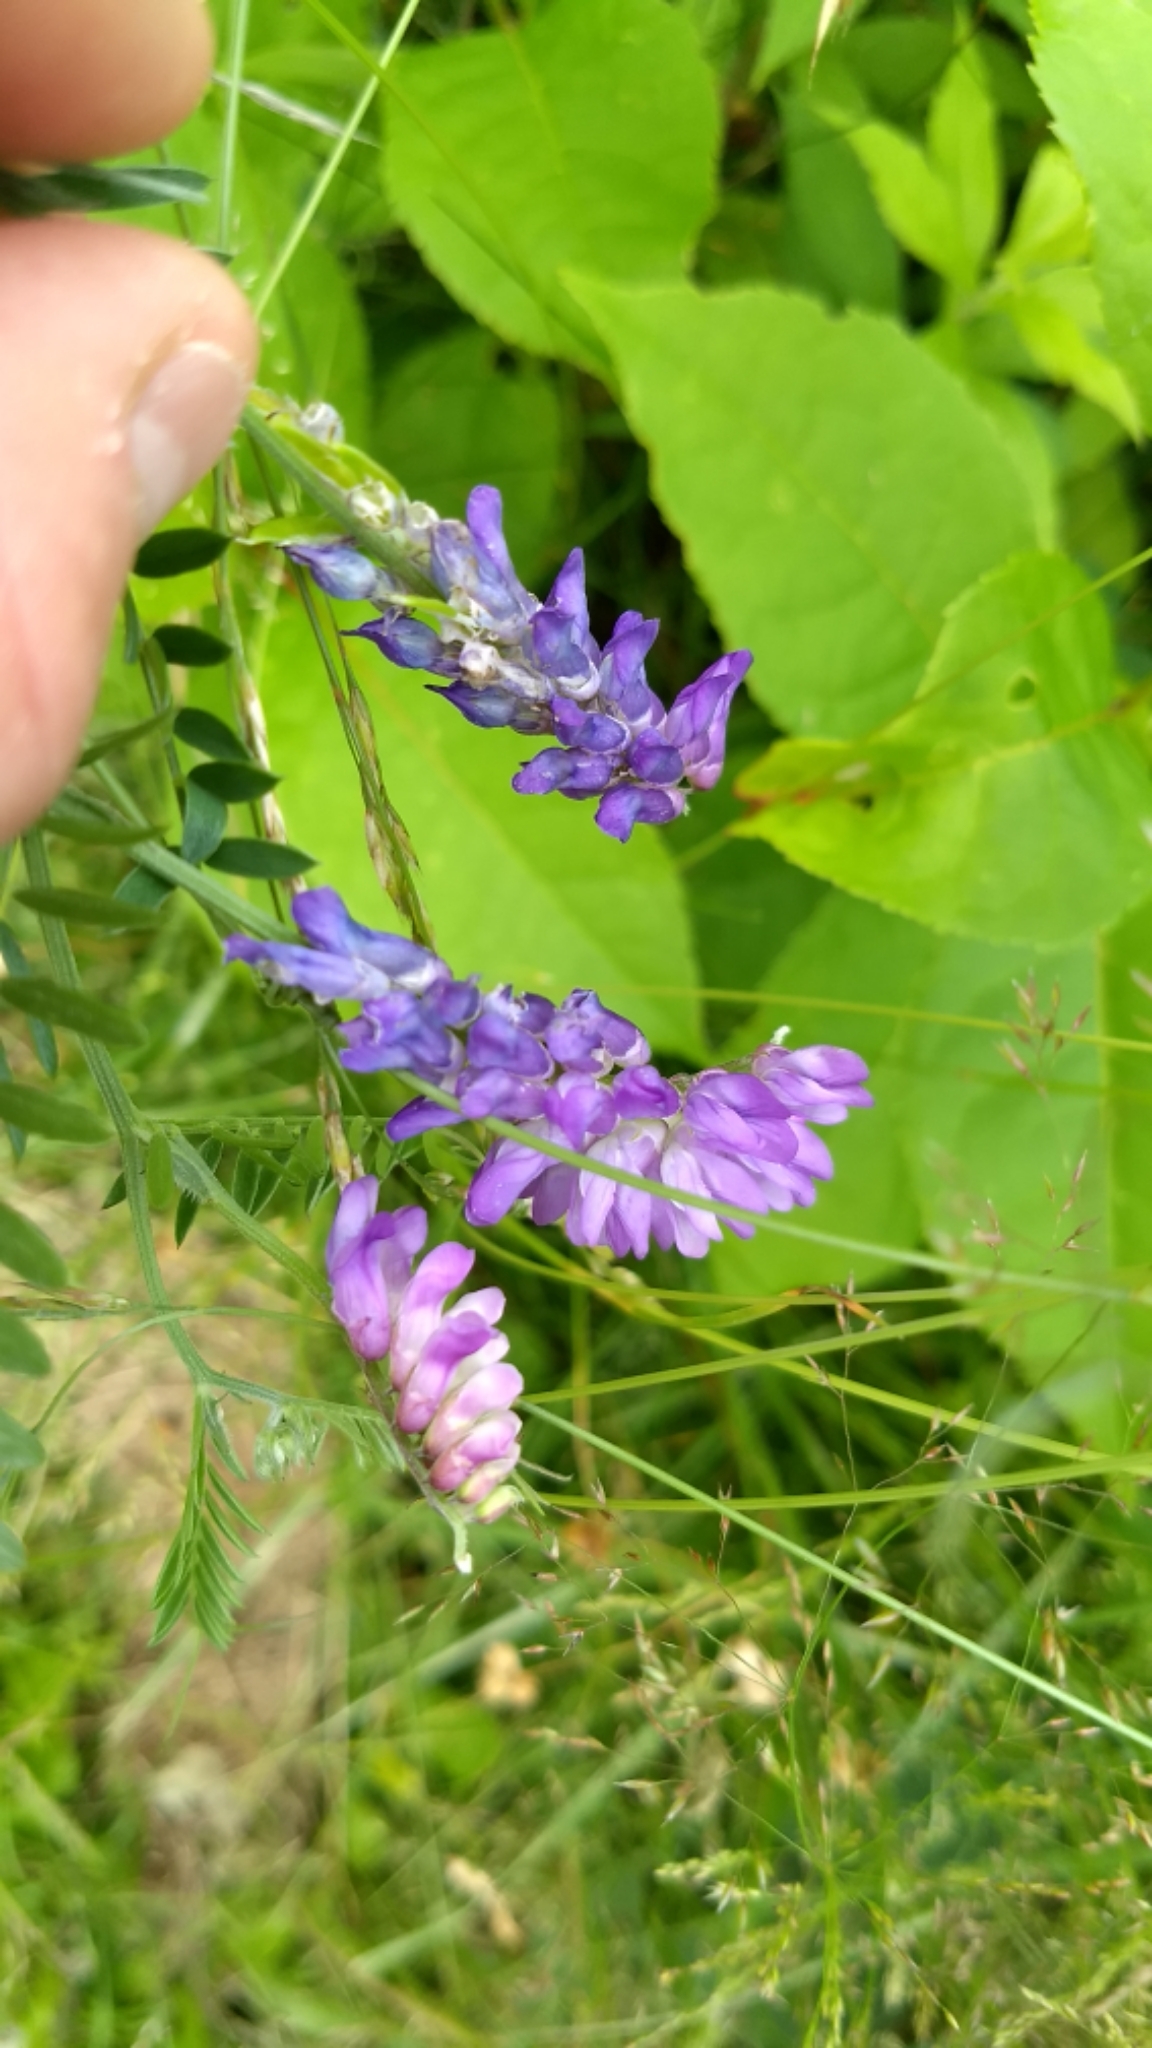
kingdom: Plantae
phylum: Tracheophyta
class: Magnoliopsida
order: Fabales
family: Fabaceae
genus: Vicia
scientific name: Vicia cracca
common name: Bird vetch
